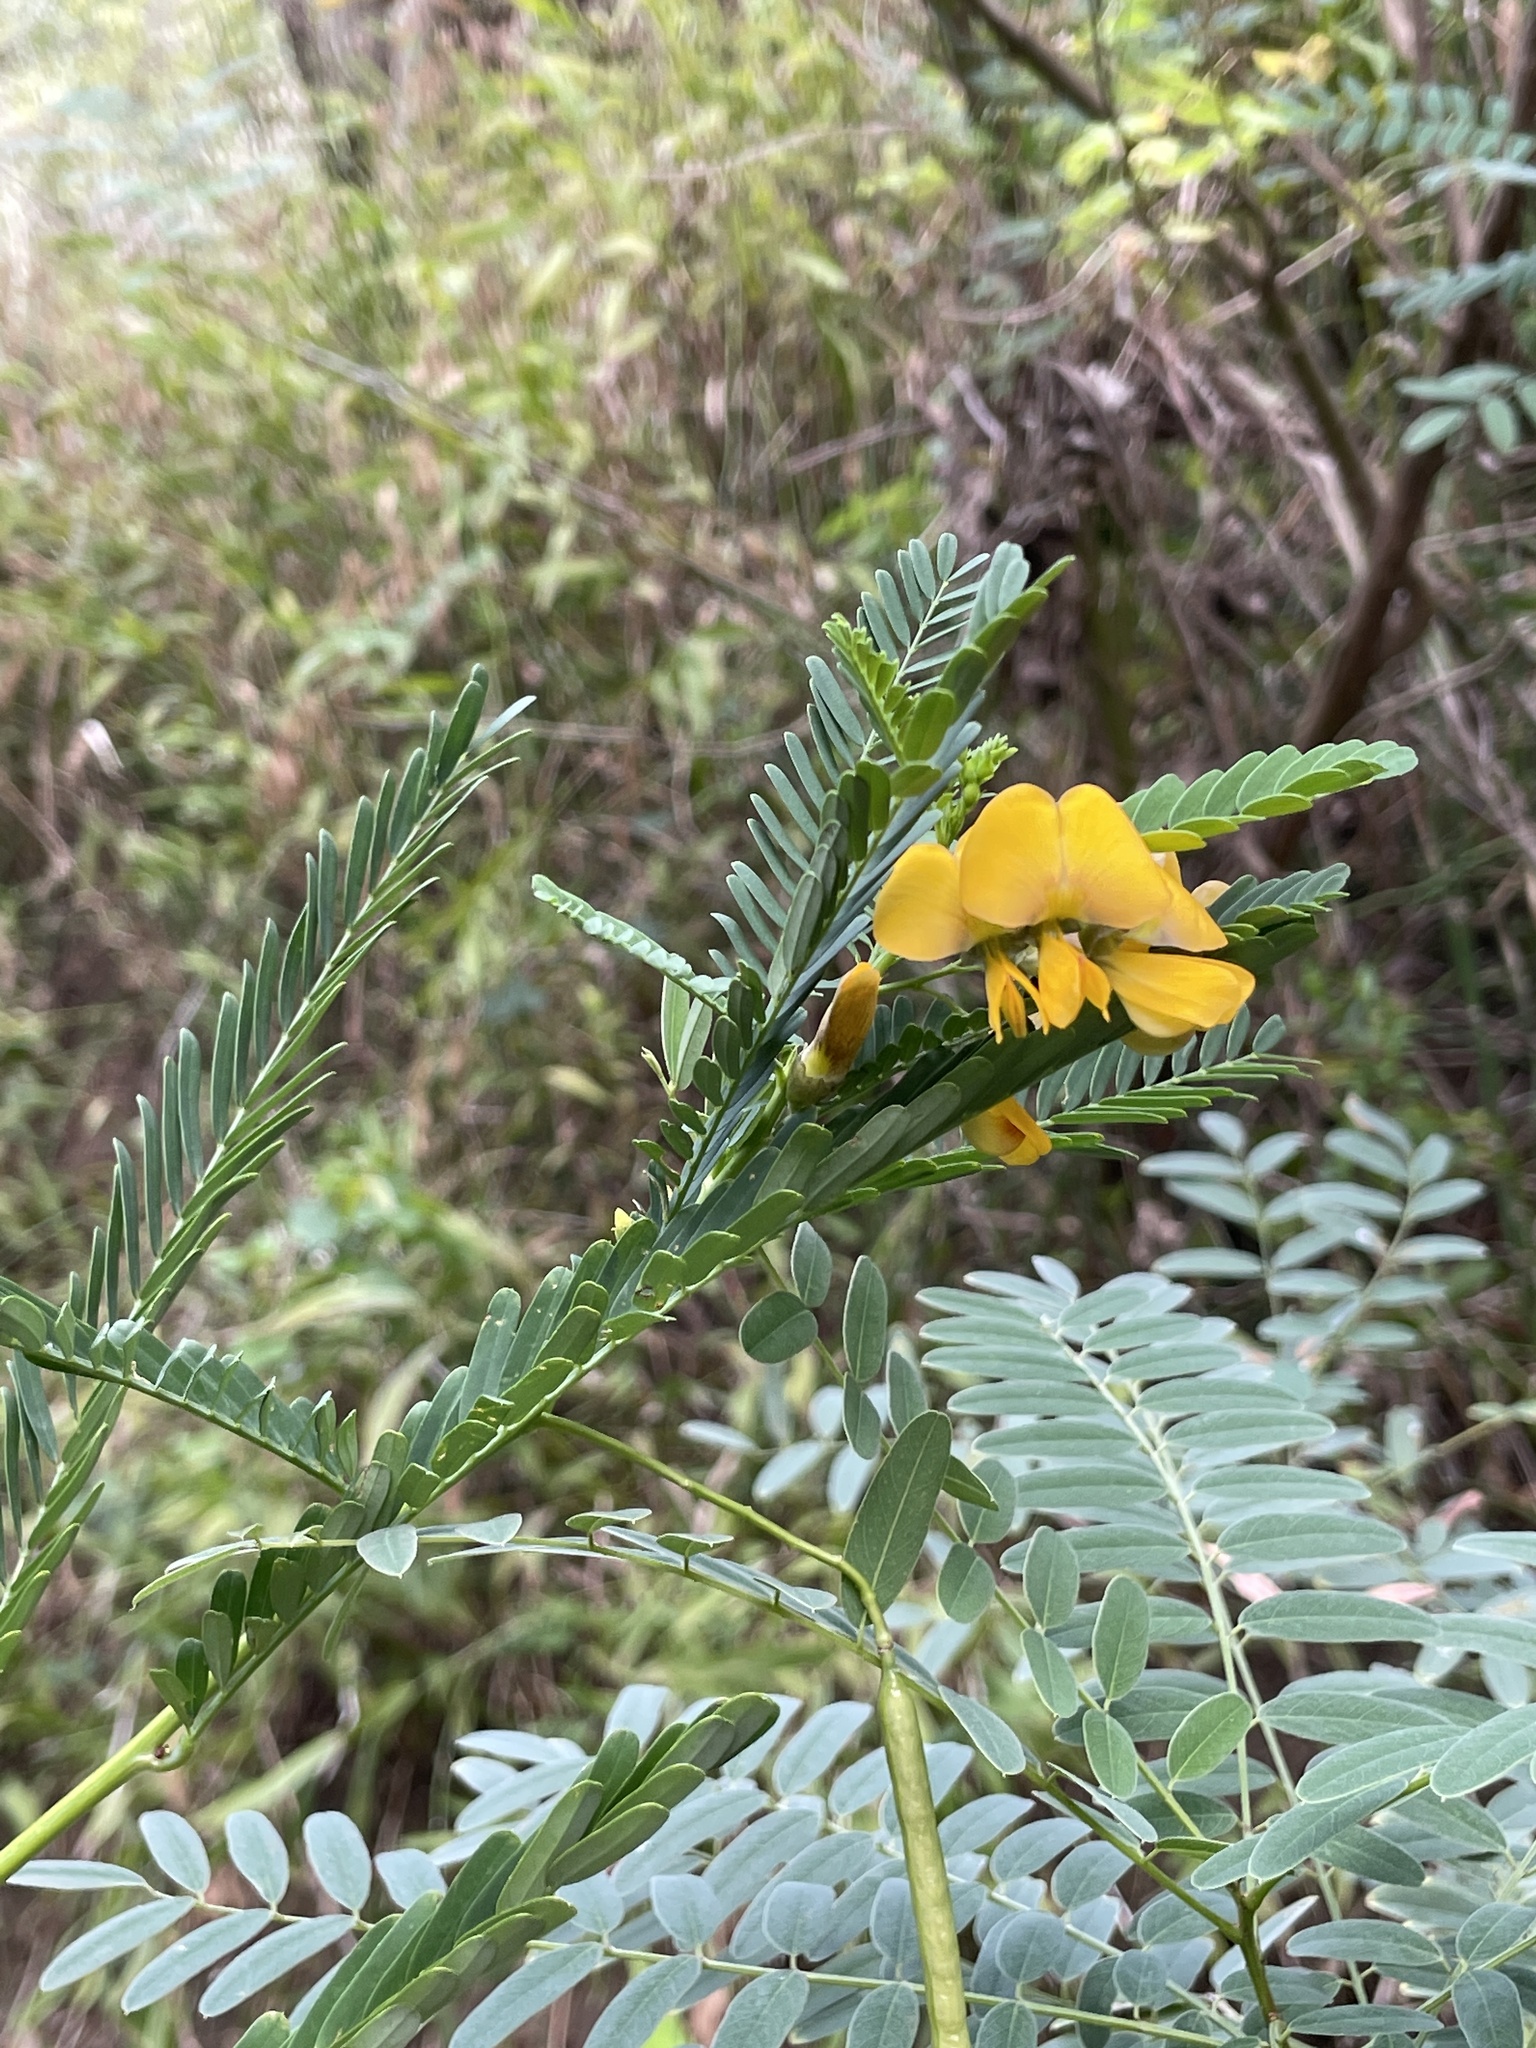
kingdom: Plantae
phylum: Tracheophyta
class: Magnoliopsida
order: Fabales
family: Fabaceae
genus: Sesbania
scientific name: Sesbania herbacea
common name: Bigpod sesbania
